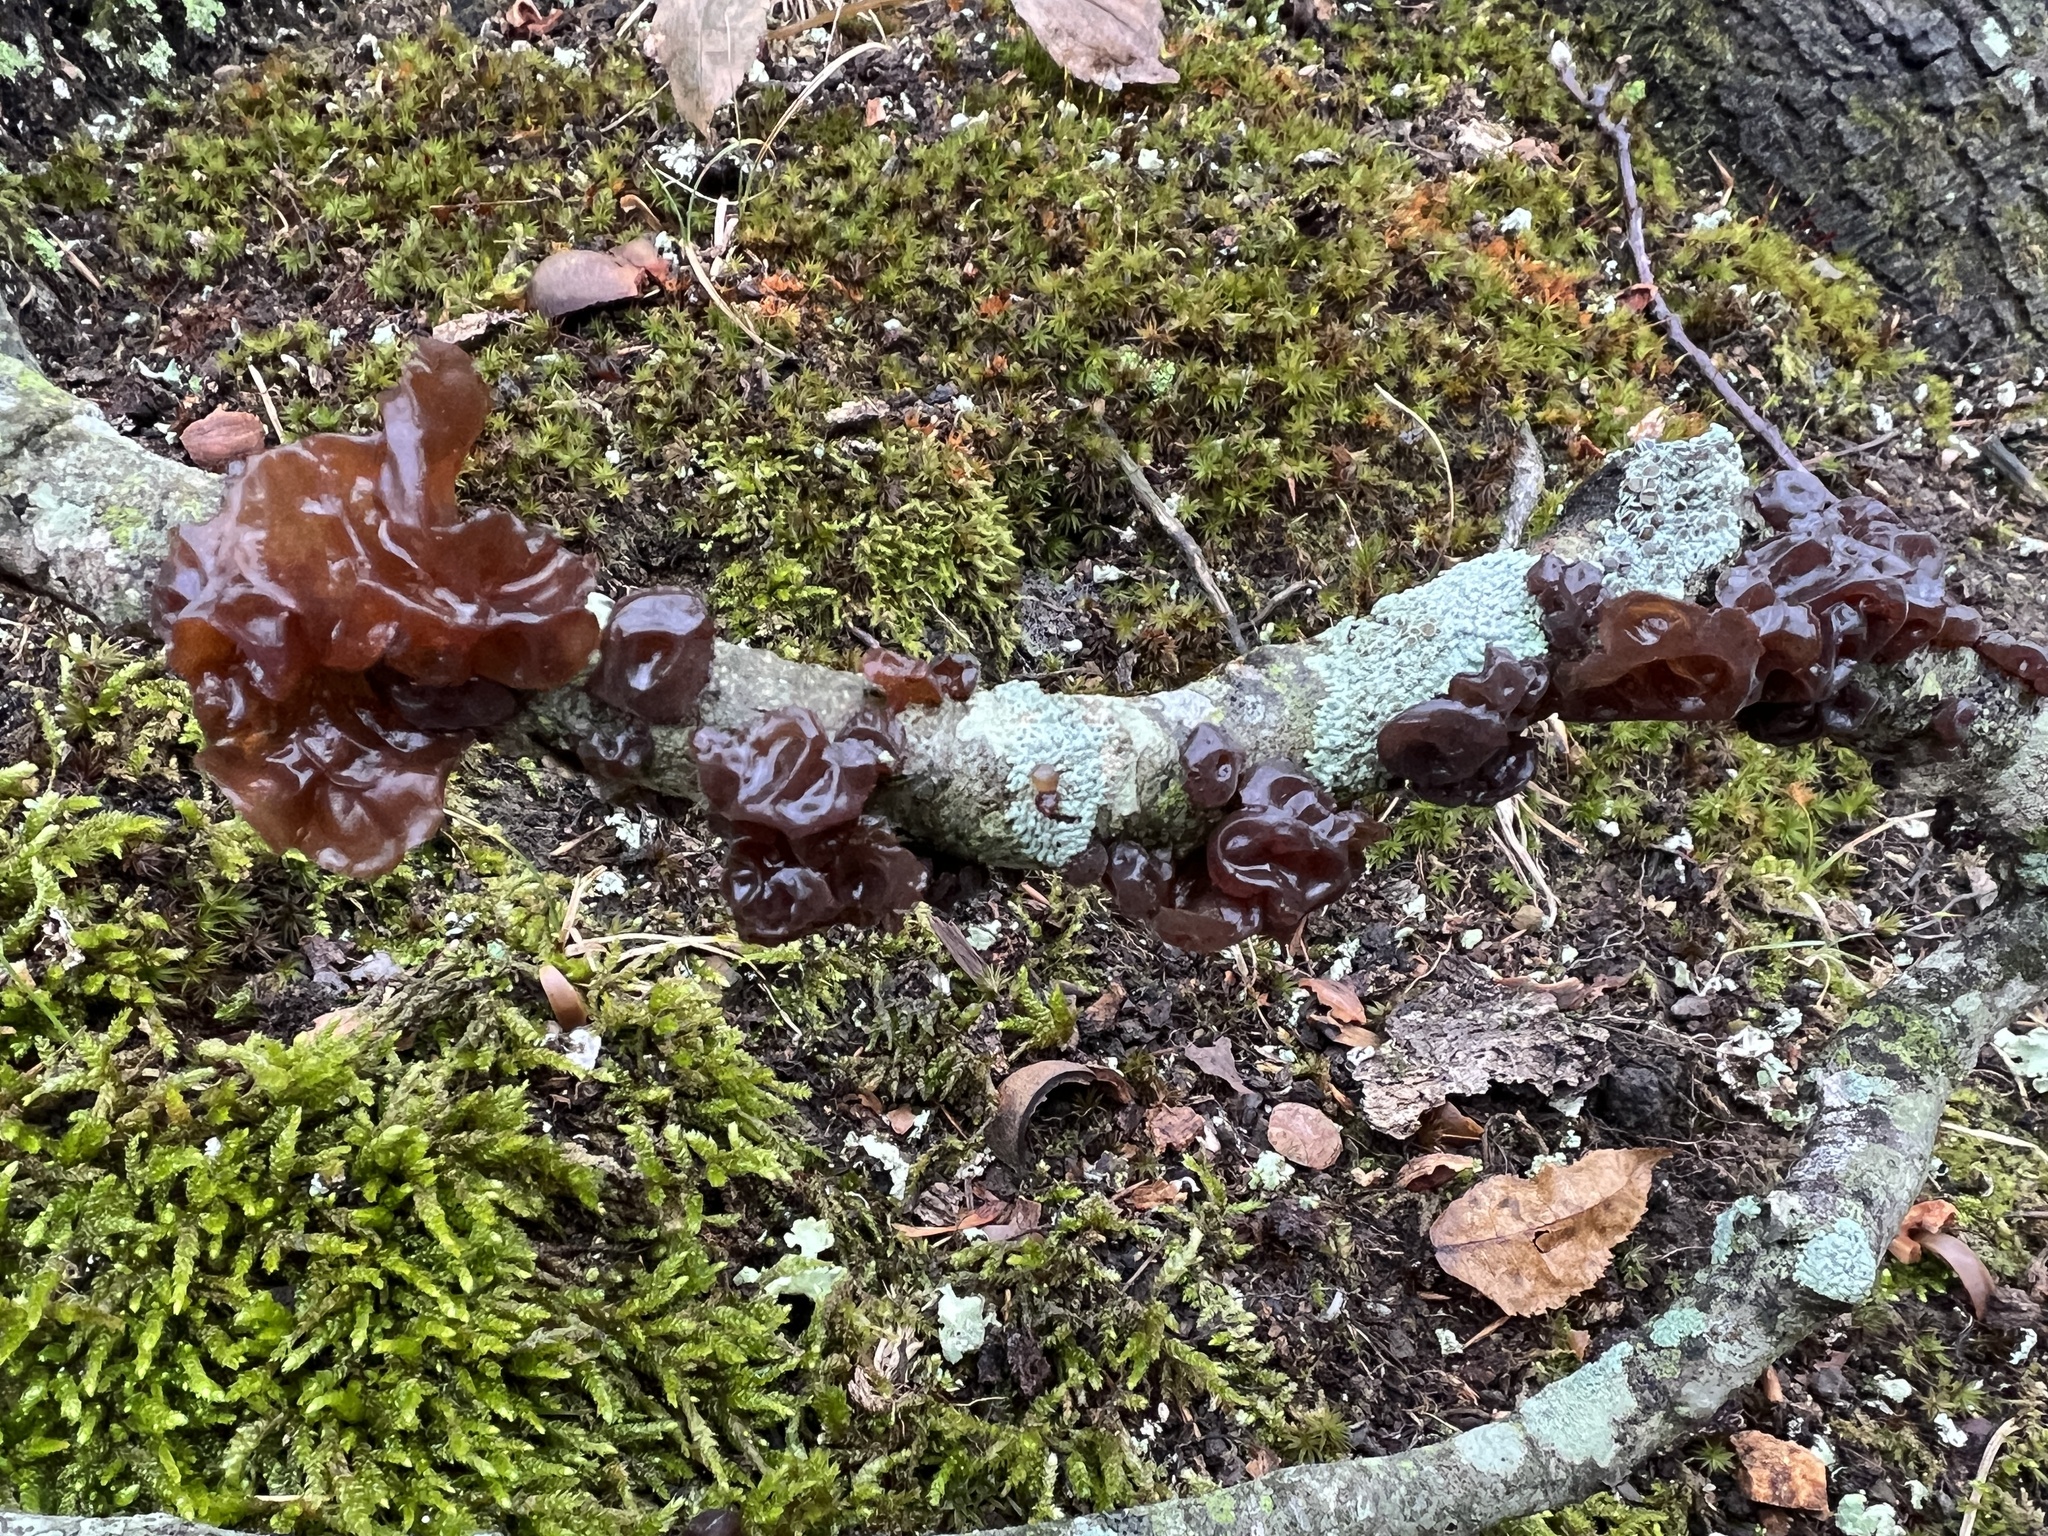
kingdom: Fungi
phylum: Basidiomycota
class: Agaricomycetes
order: Auriculariales
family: Auriculariaceae
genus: Exidia
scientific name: Exidia
